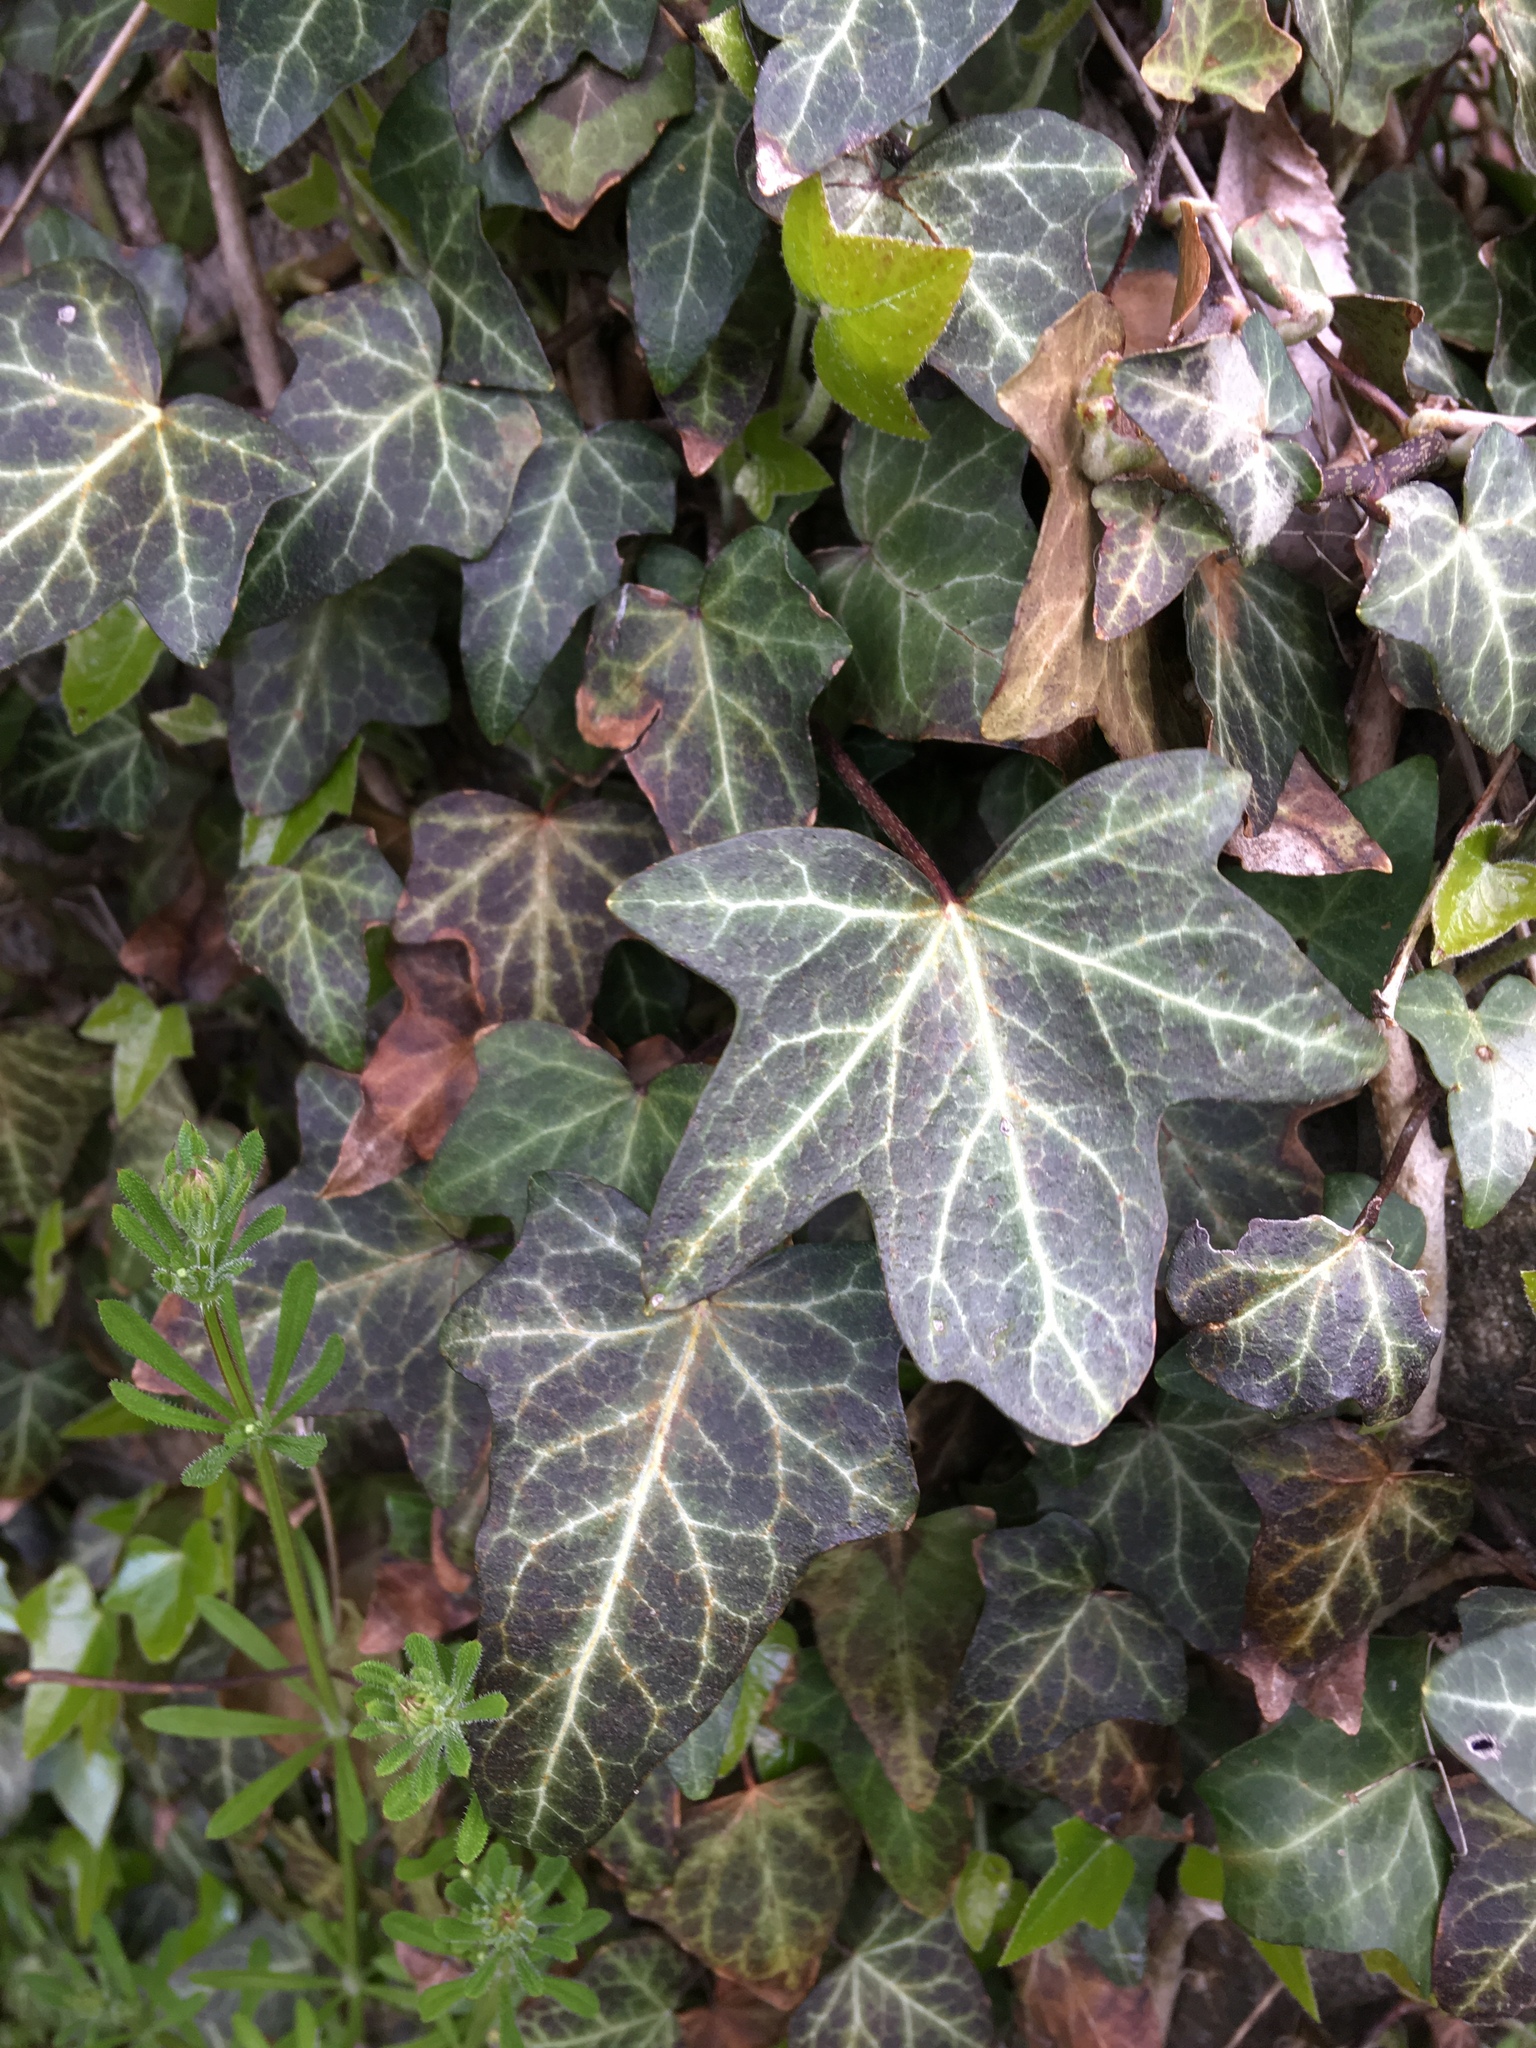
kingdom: Plantae
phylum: Tracheophyta
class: Magnoliopsida
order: Apiales
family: Araliaceae
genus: Hedera
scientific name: Hedera helix
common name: Ivy
